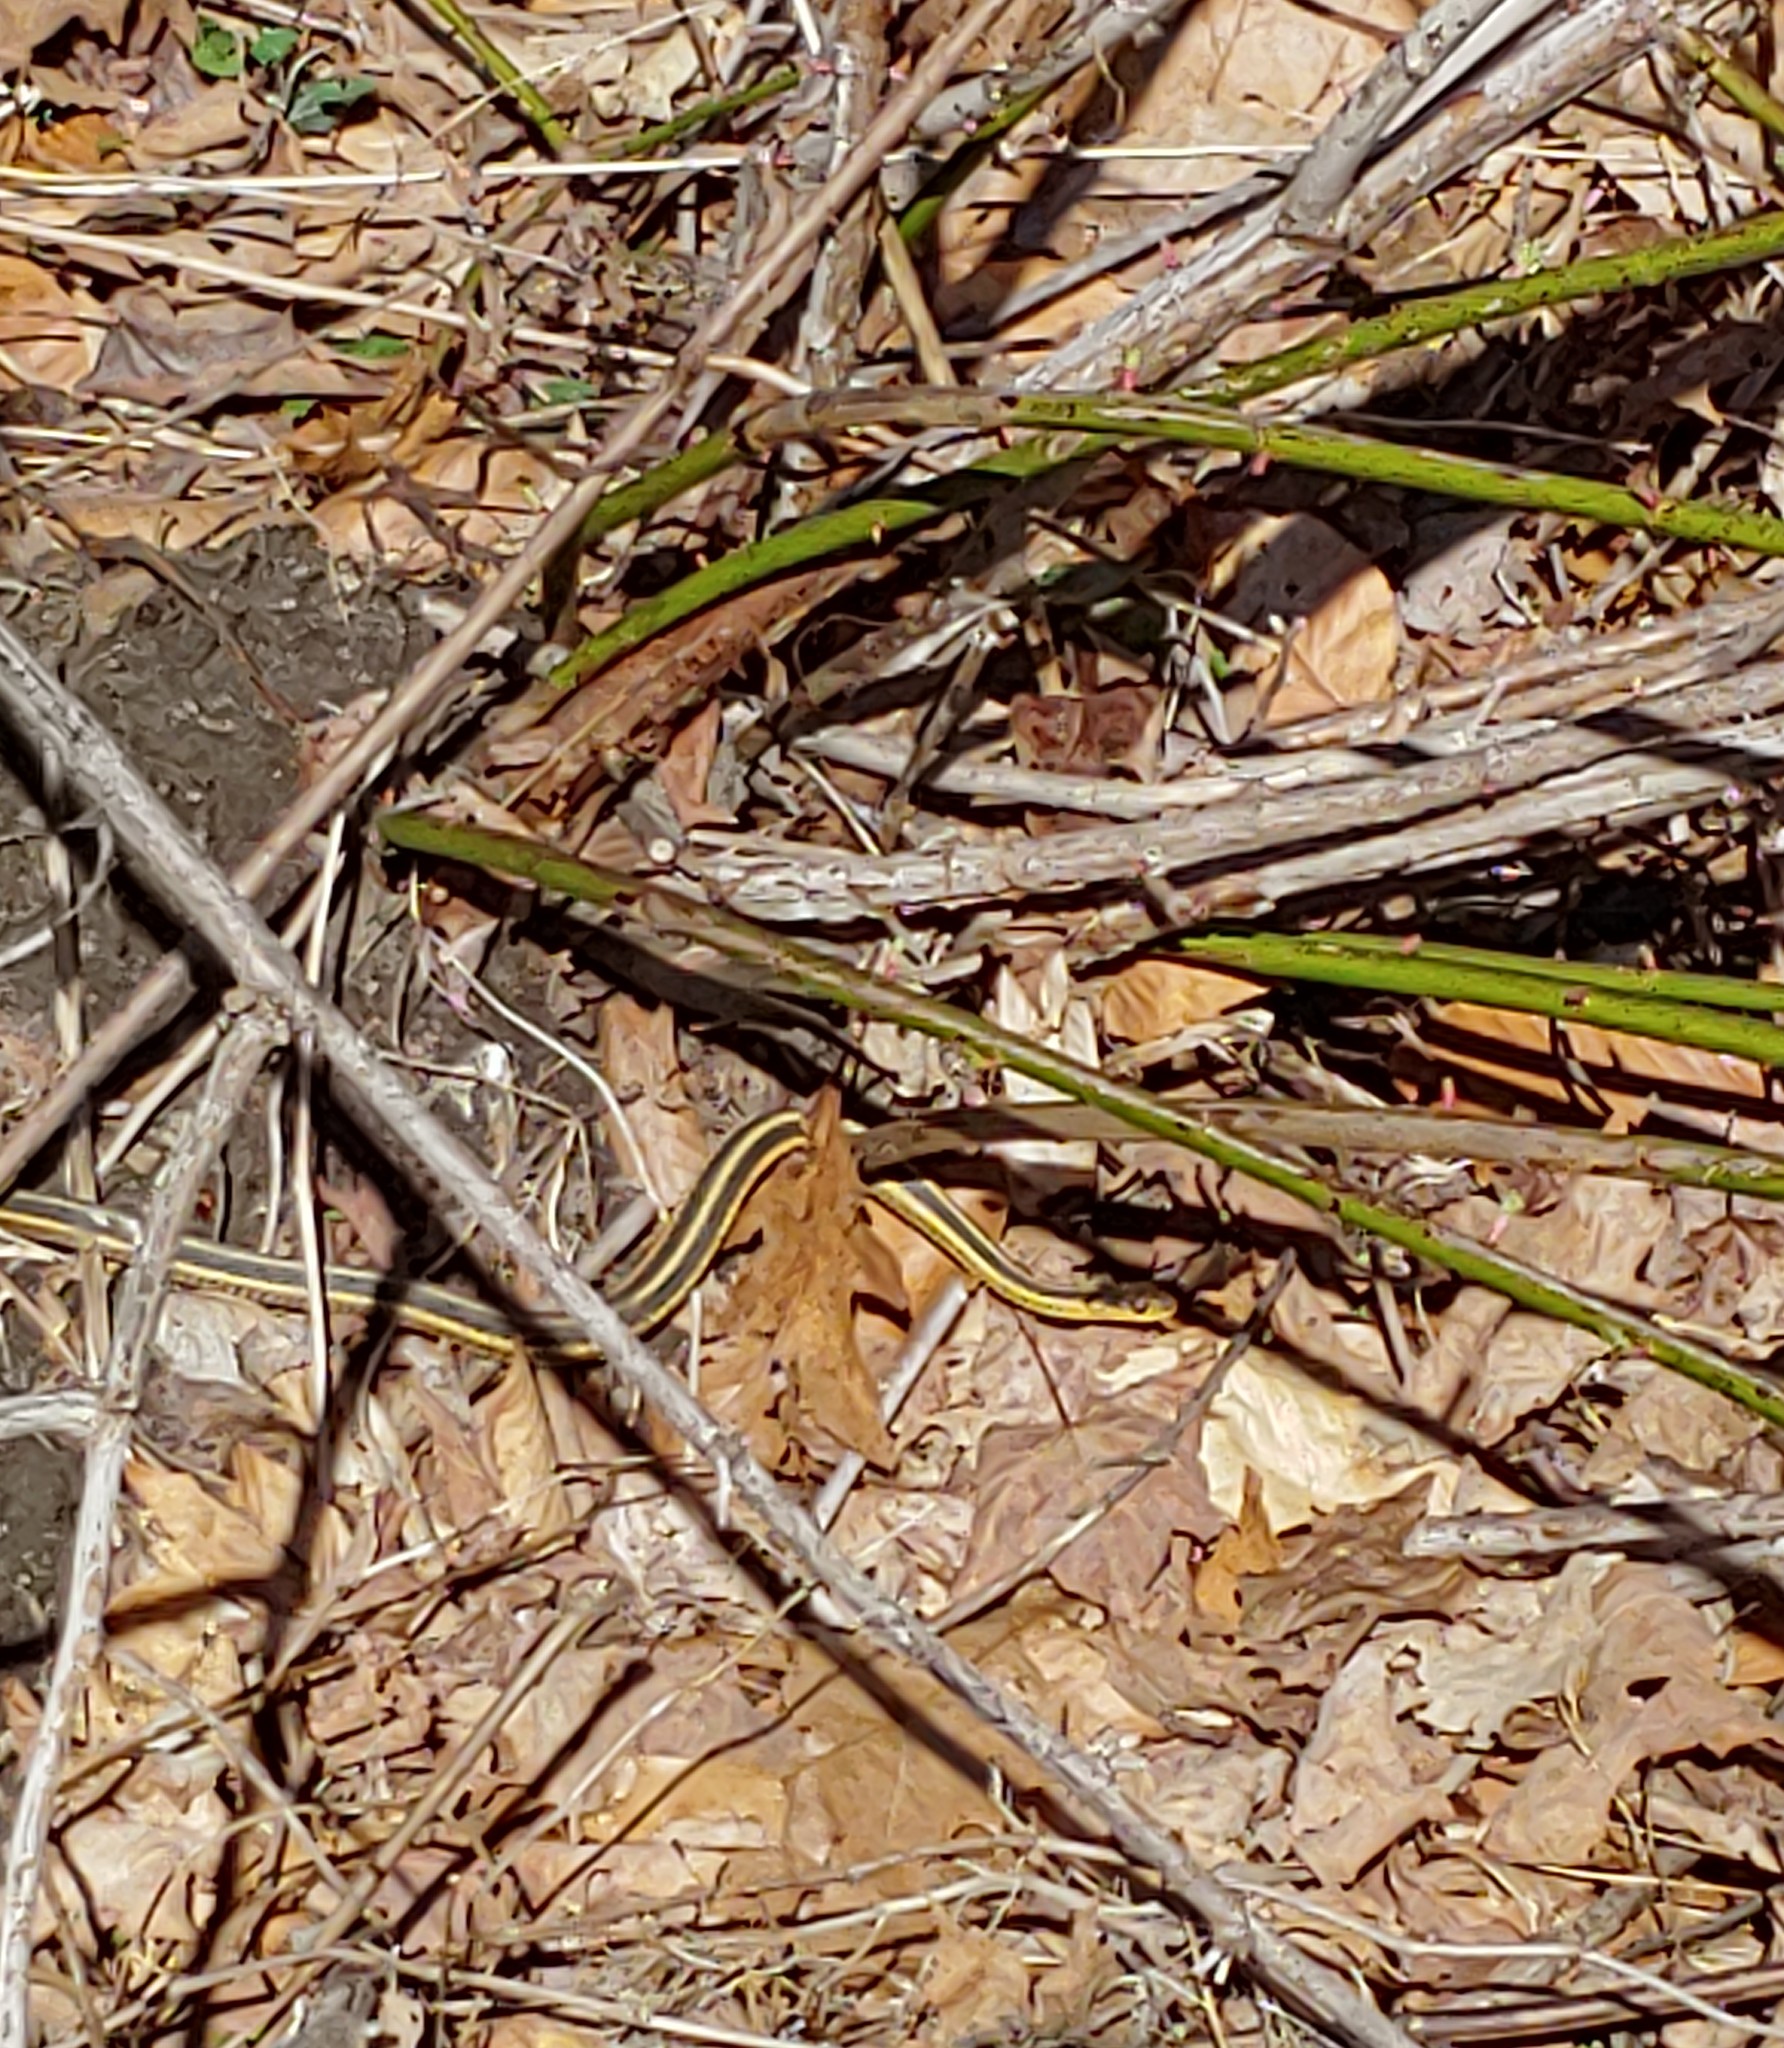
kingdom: Animalia
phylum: Chordata
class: Squamata
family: Colubridae
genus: Thamnophis
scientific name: Thamnophis sirtalis
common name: Common garter snake
